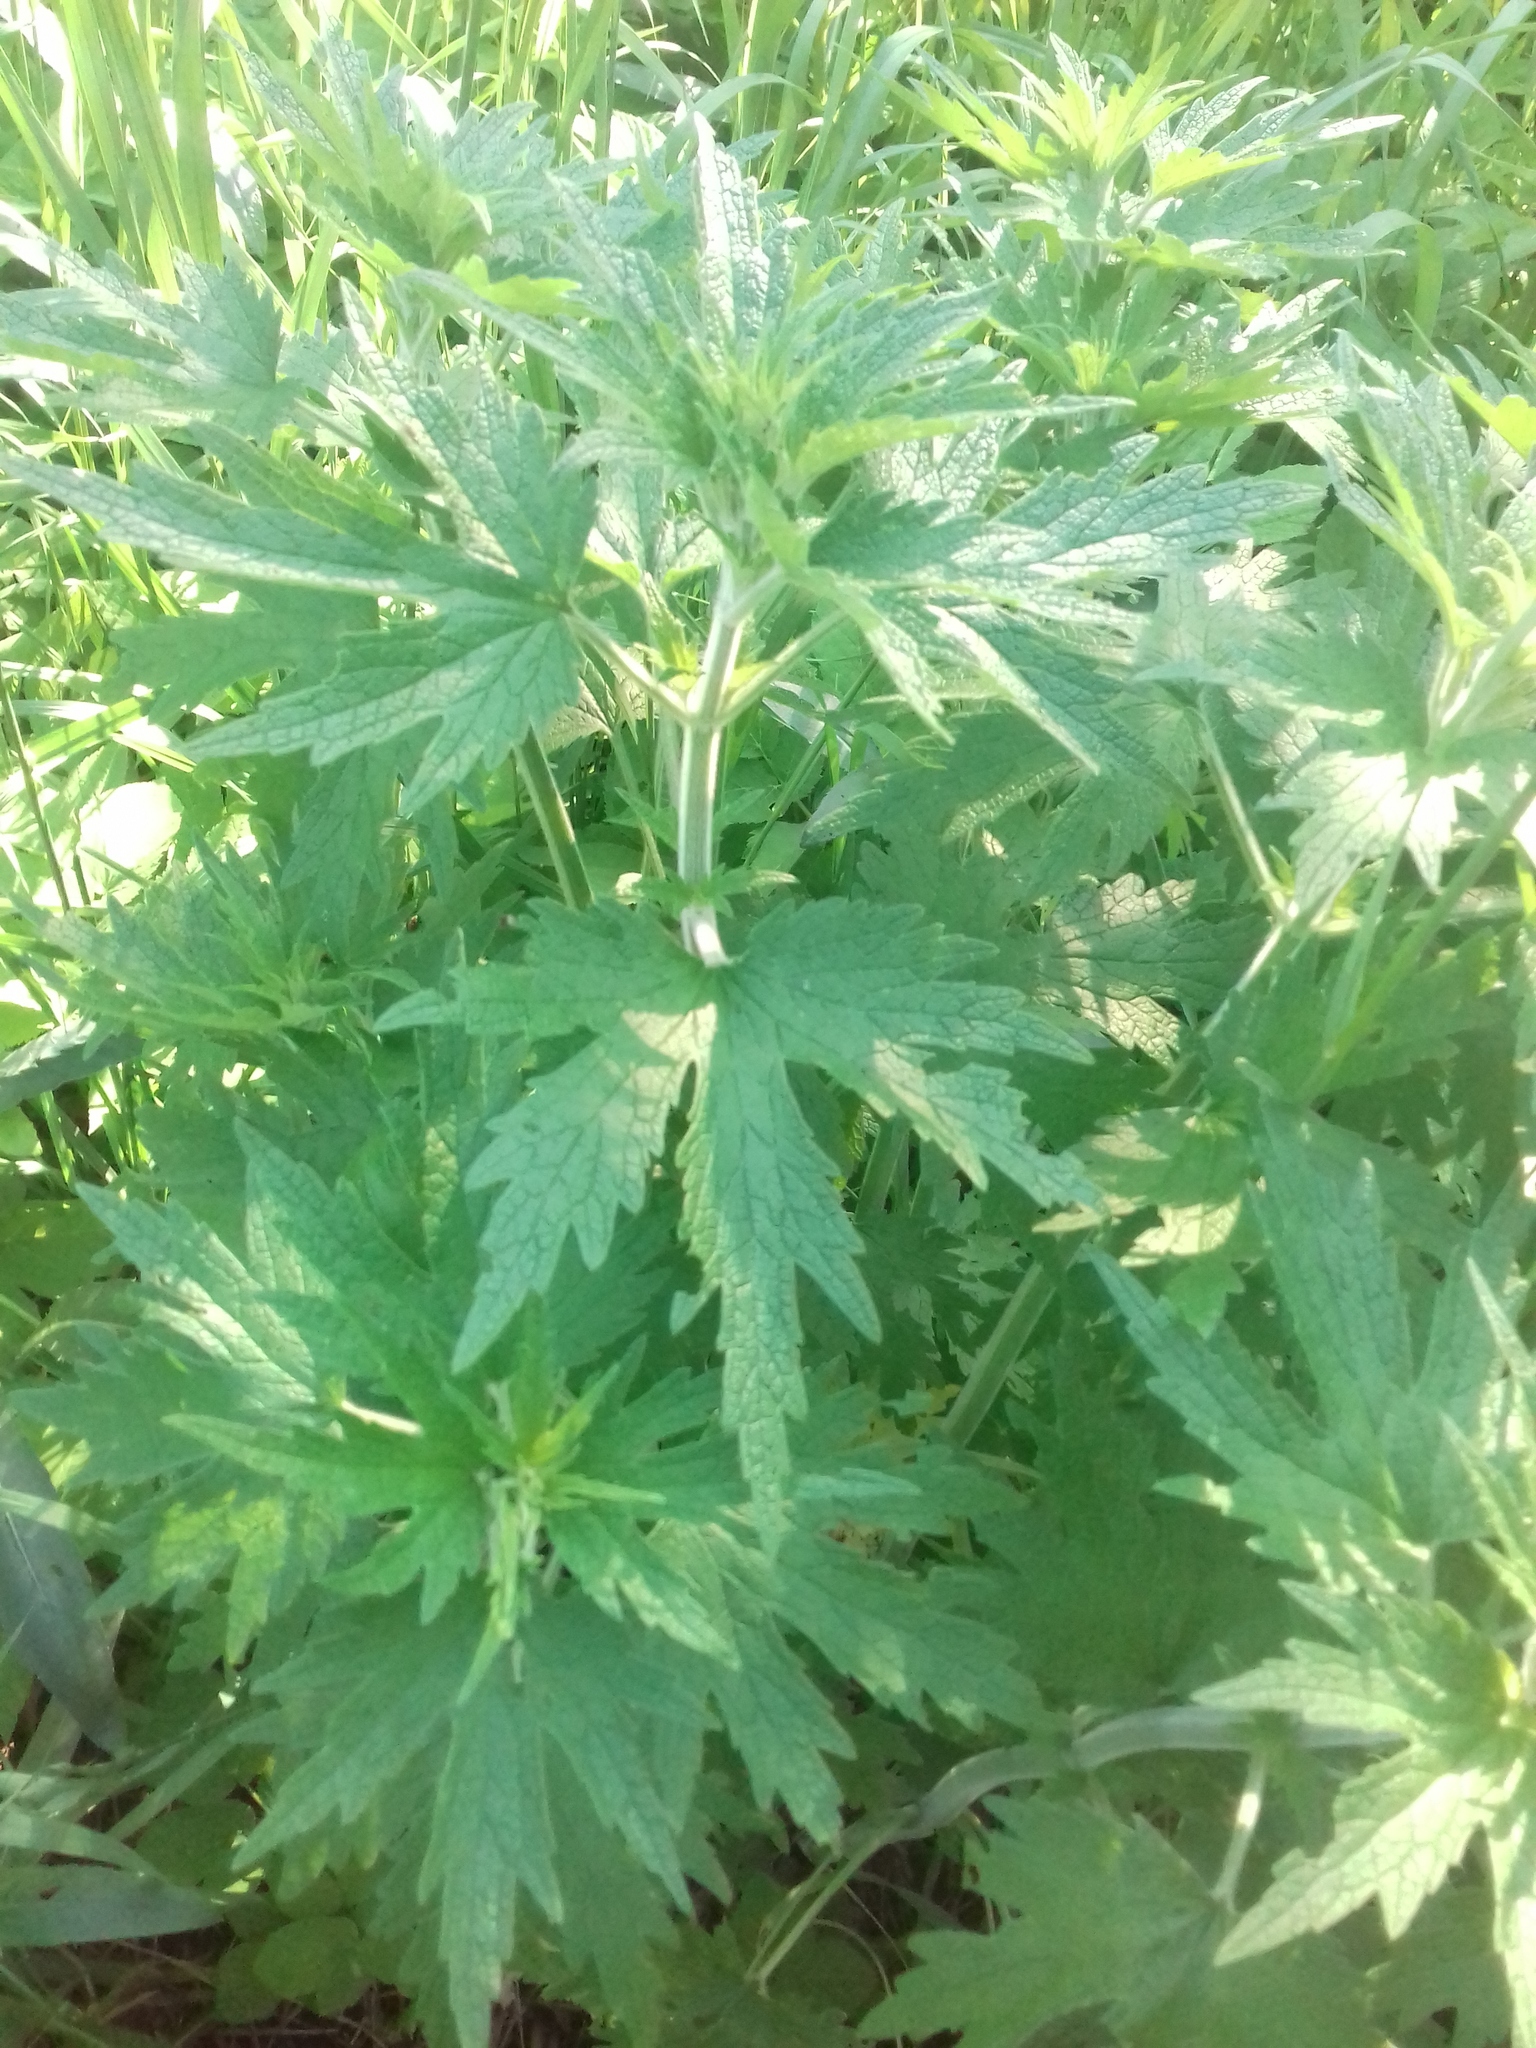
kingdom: Plantae
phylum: Tracheophyta
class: Magnoliopsida
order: Lamiales
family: Lamiaceae
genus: Leonurus
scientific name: Leonurus quinquelobatus
